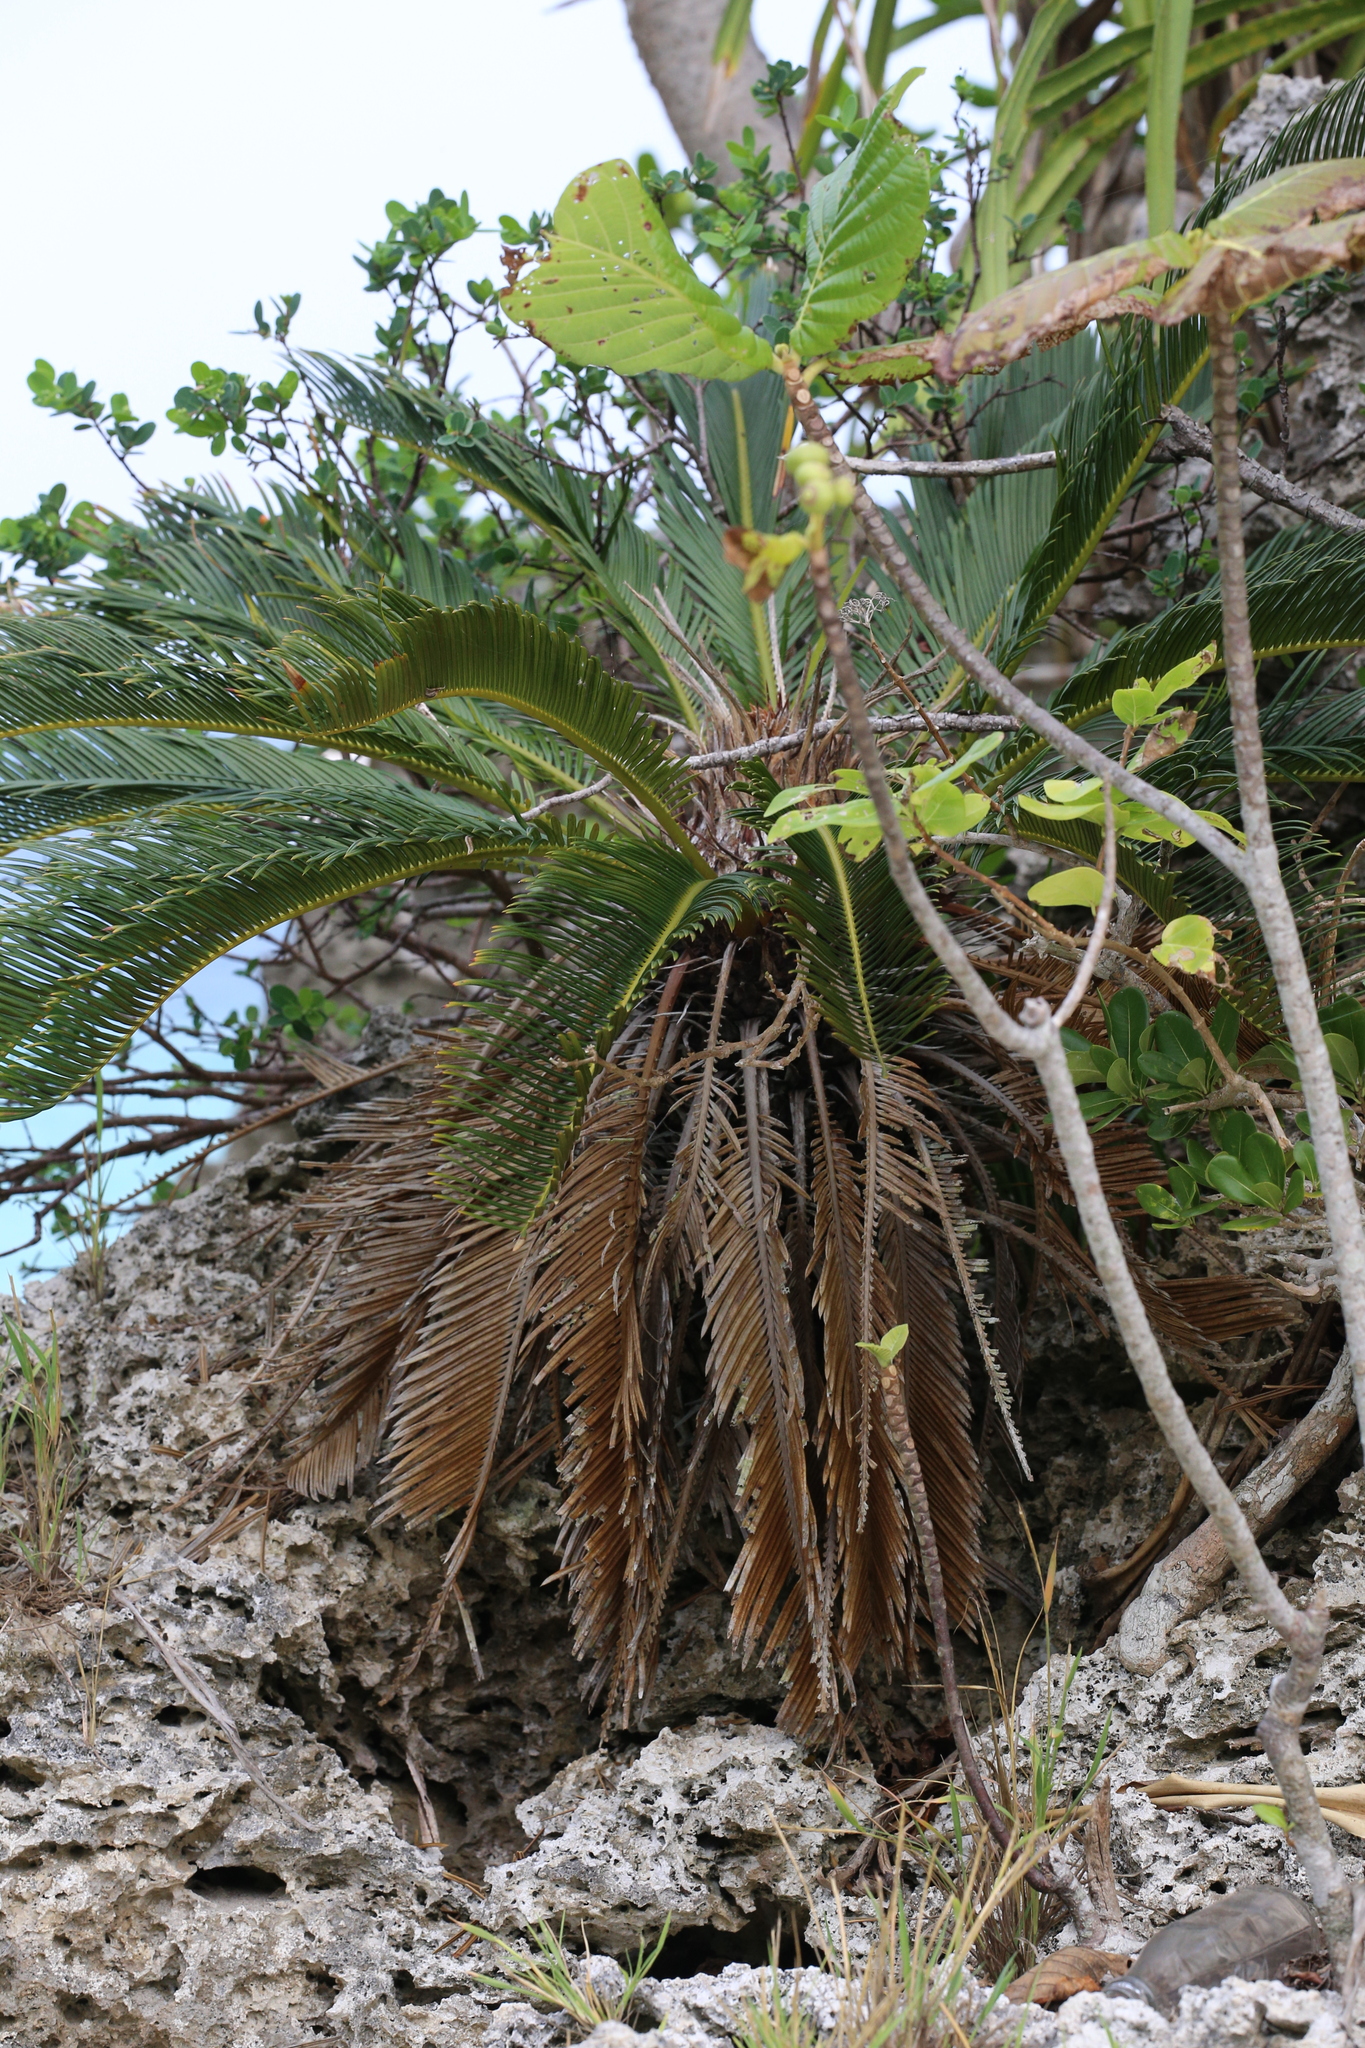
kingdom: Plantae
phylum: Tracheophyta
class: Cycadopsida
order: Cycadales
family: Cycadaceae
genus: Cycas
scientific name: Cycas revoluta
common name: Sago palm
